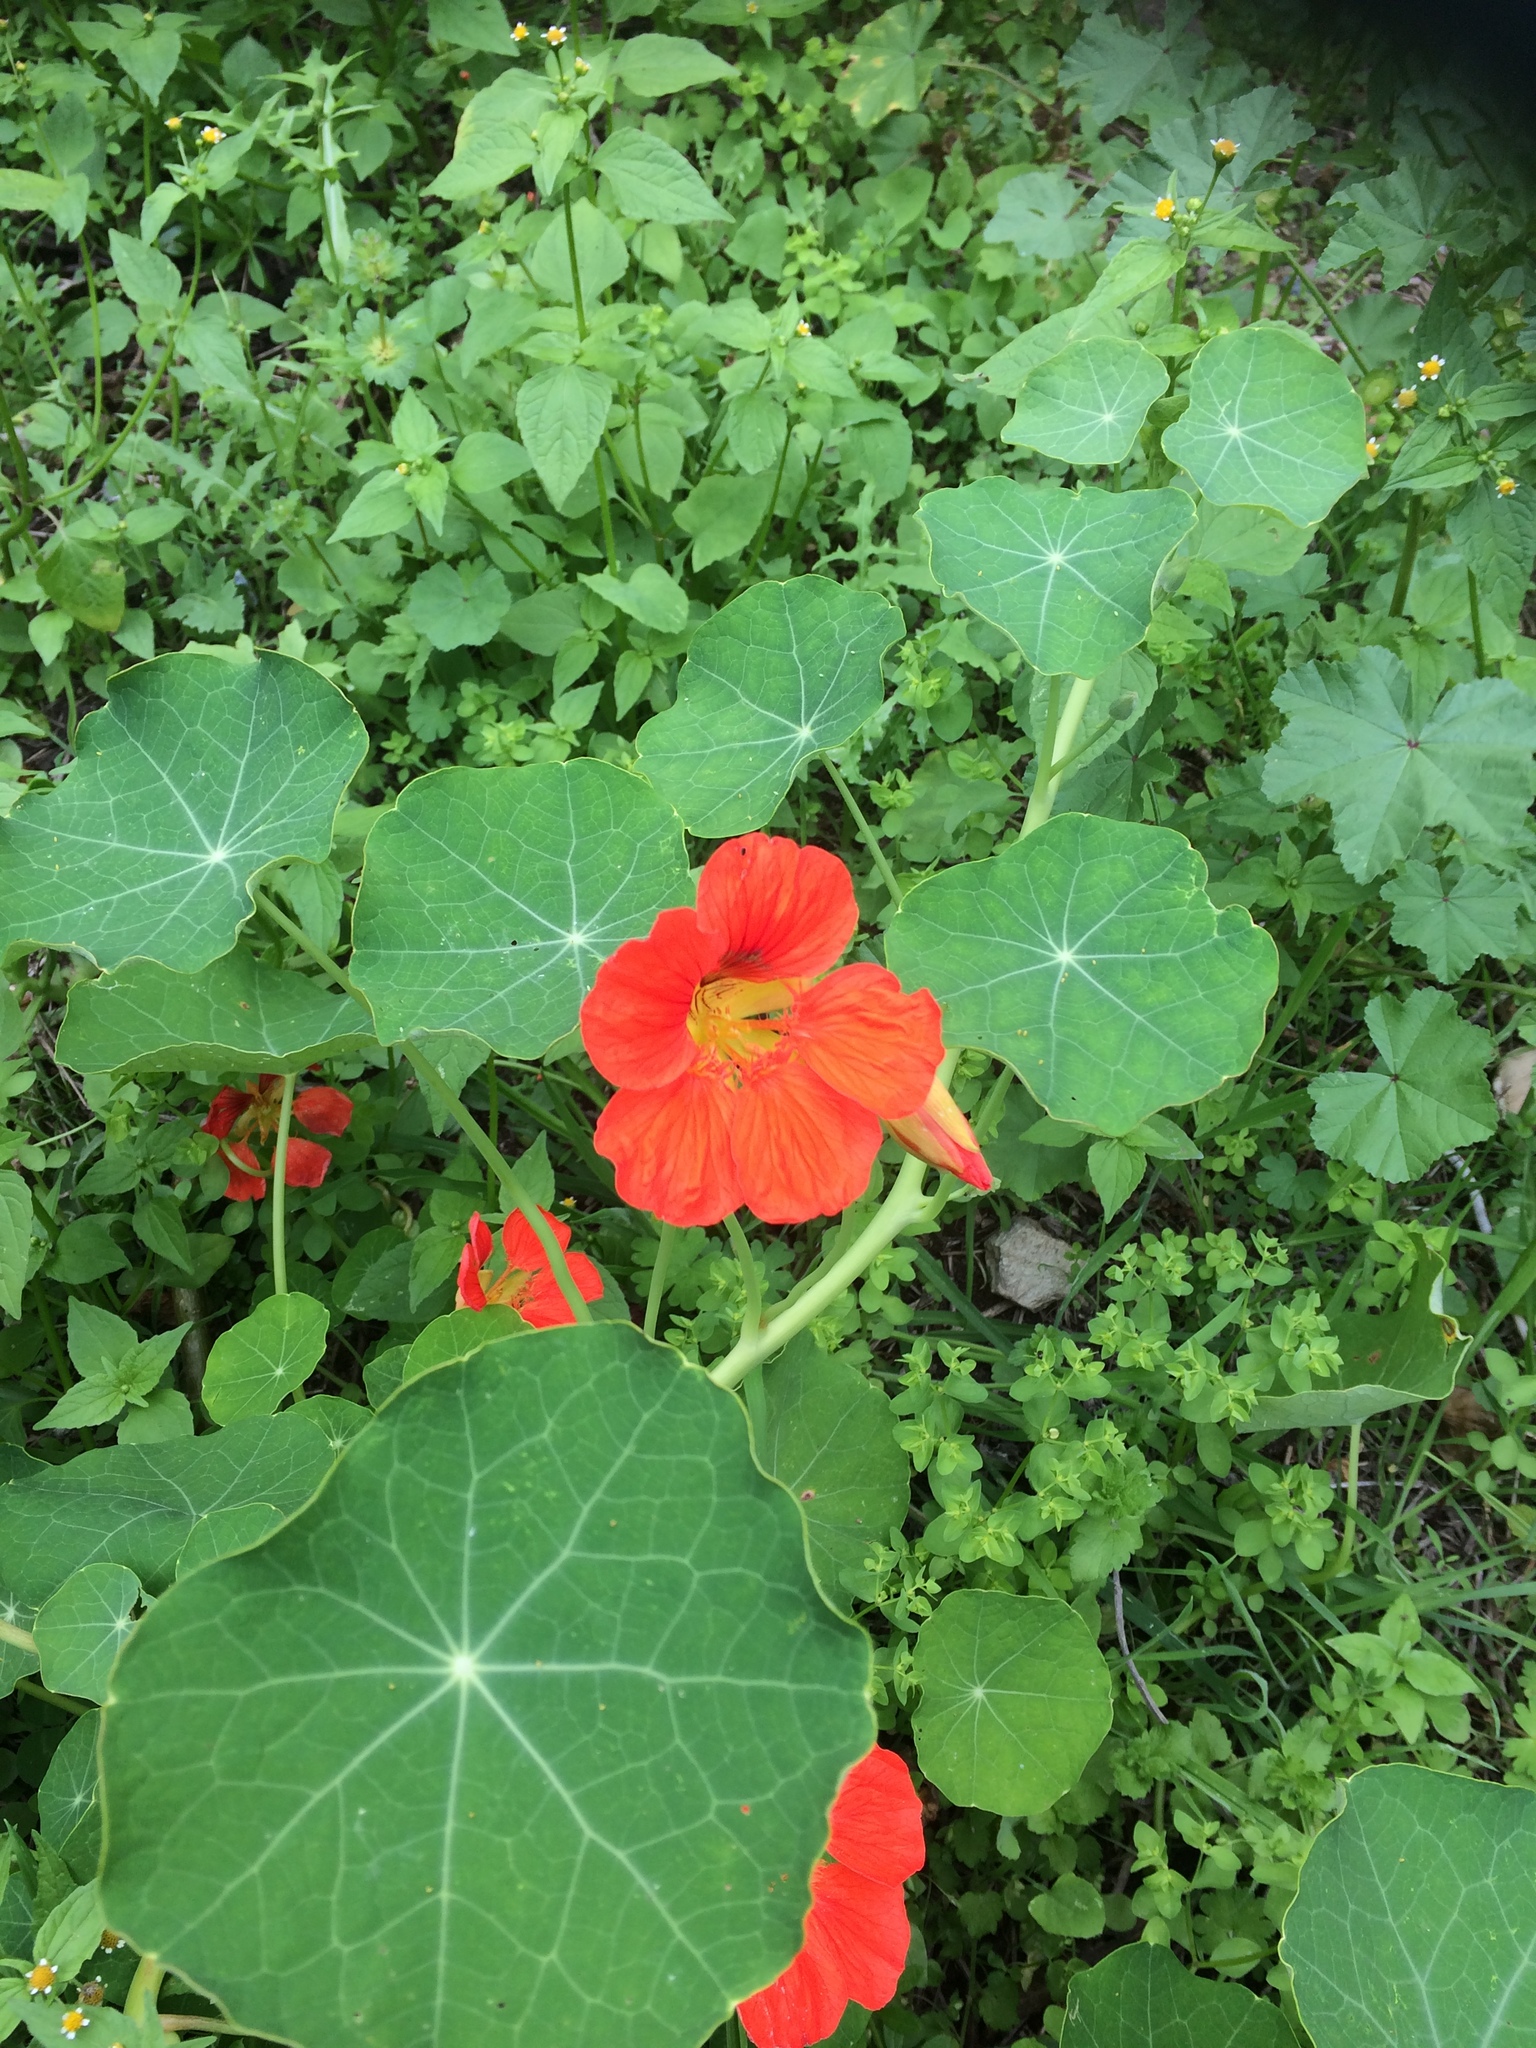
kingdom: Plantae
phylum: Tracheophyta
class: Magnoliopsida
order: Brassicales
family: Tropaeolaceae
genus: Tropaeolum
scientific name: Tropaeolum majus
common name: Nasturtium
